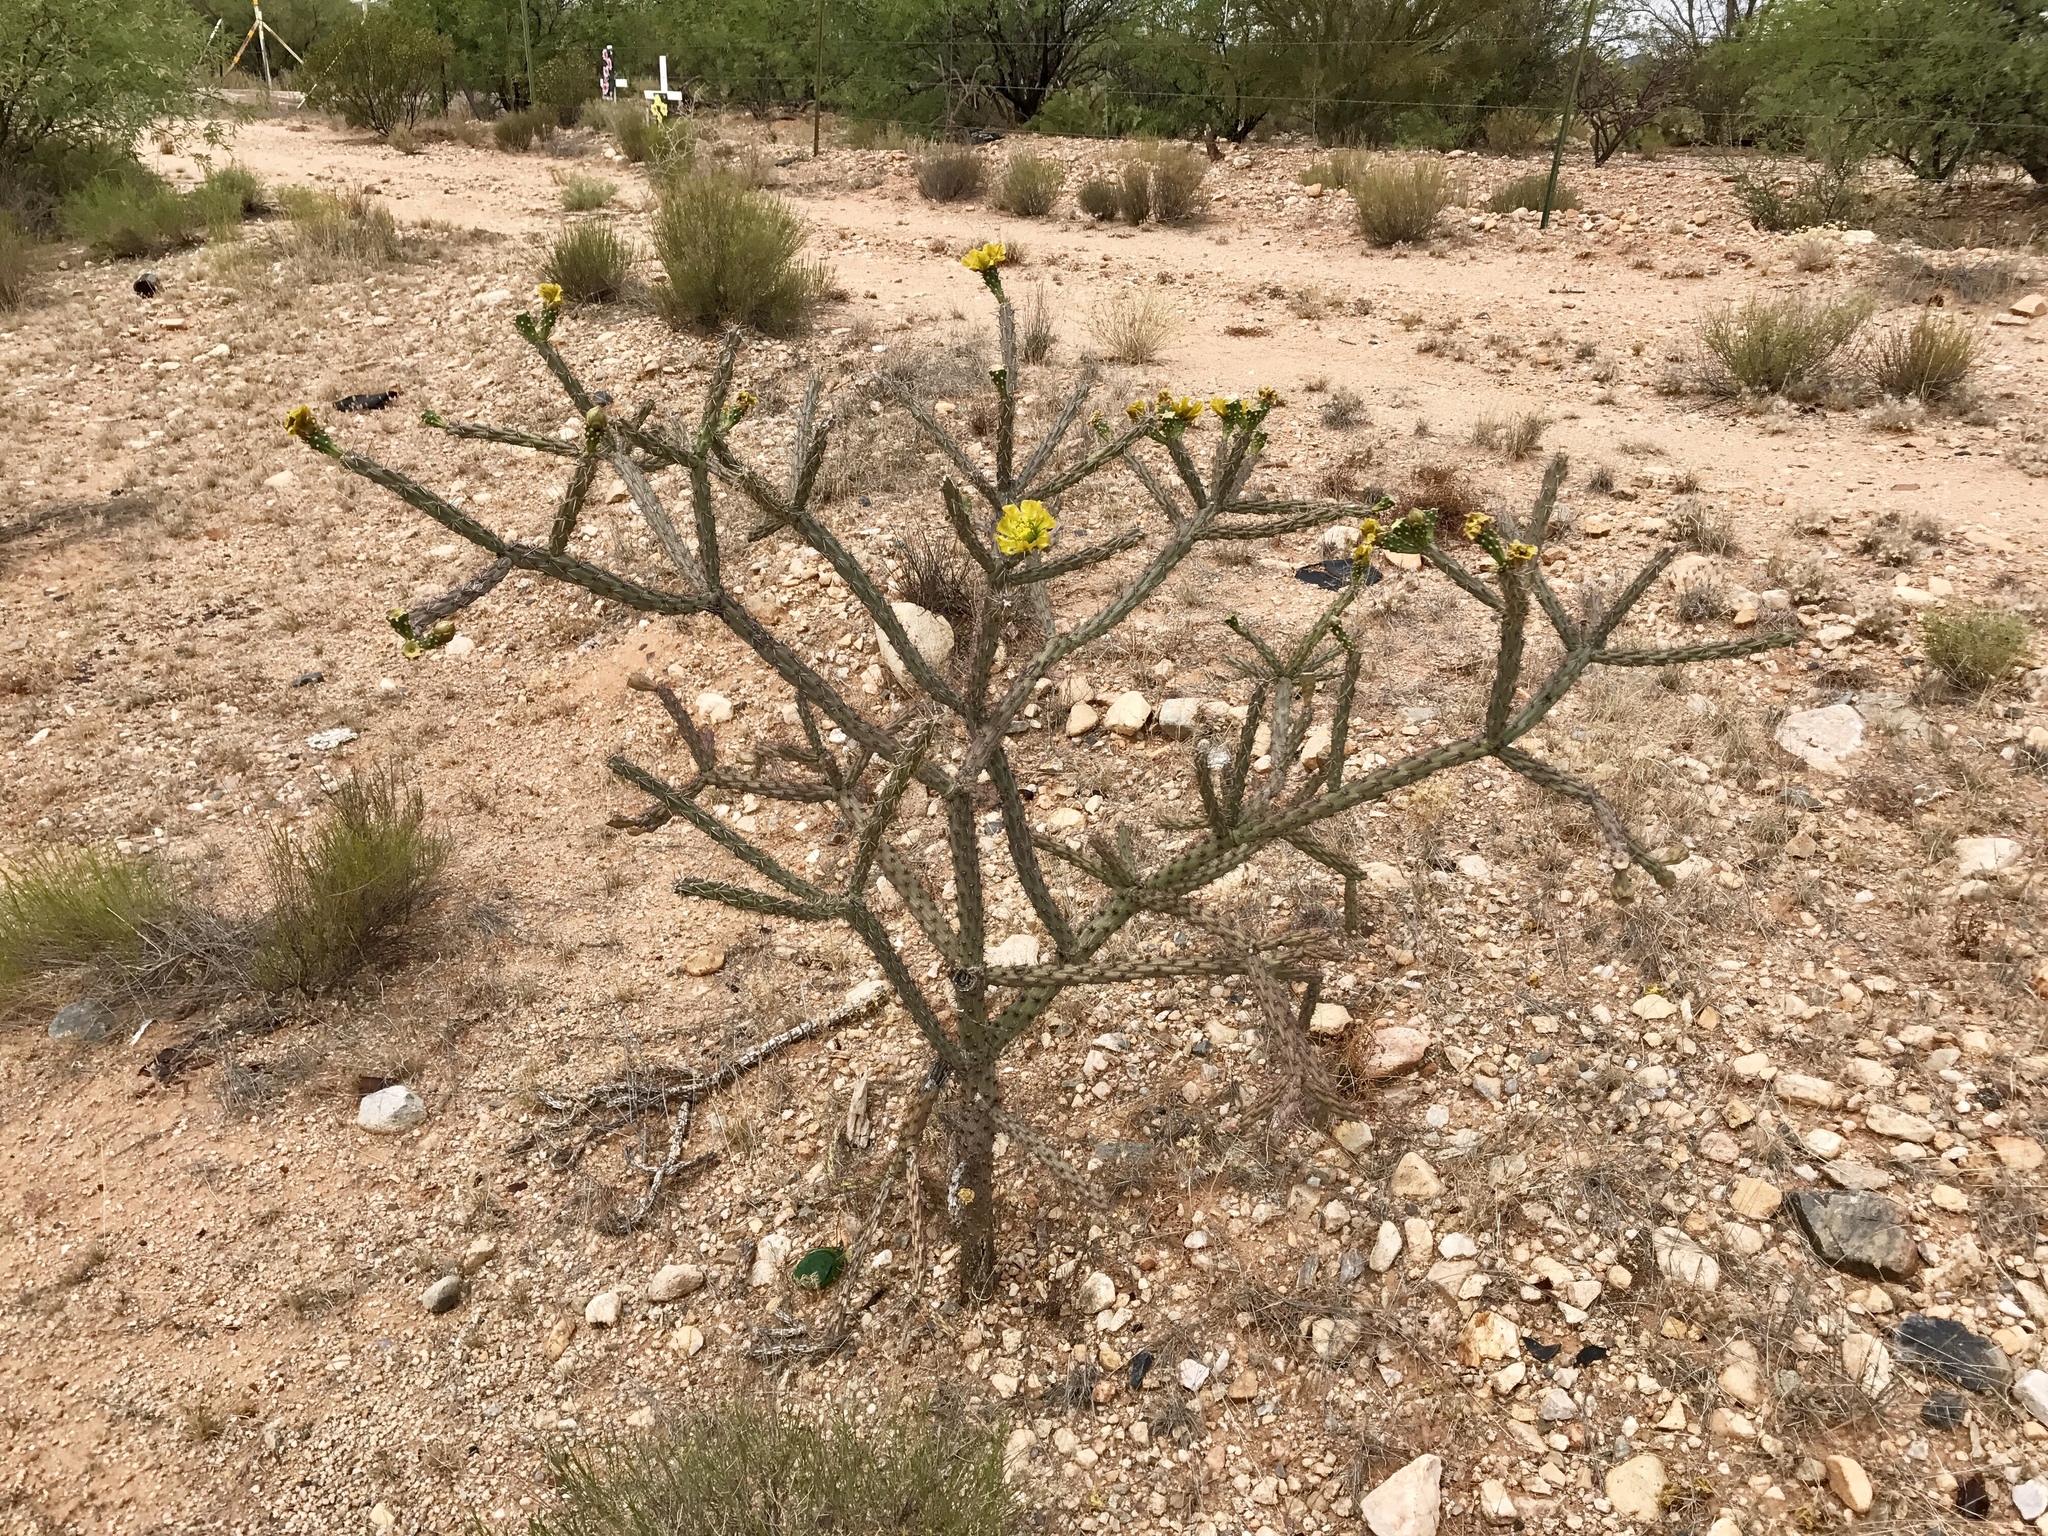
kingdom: Plantae
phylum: Tracheophyta
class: Magnoliopsida
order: Caryophyllales
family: Cactaceae
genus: Cylindropuntia
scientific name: Cylindropuntia thurberi
